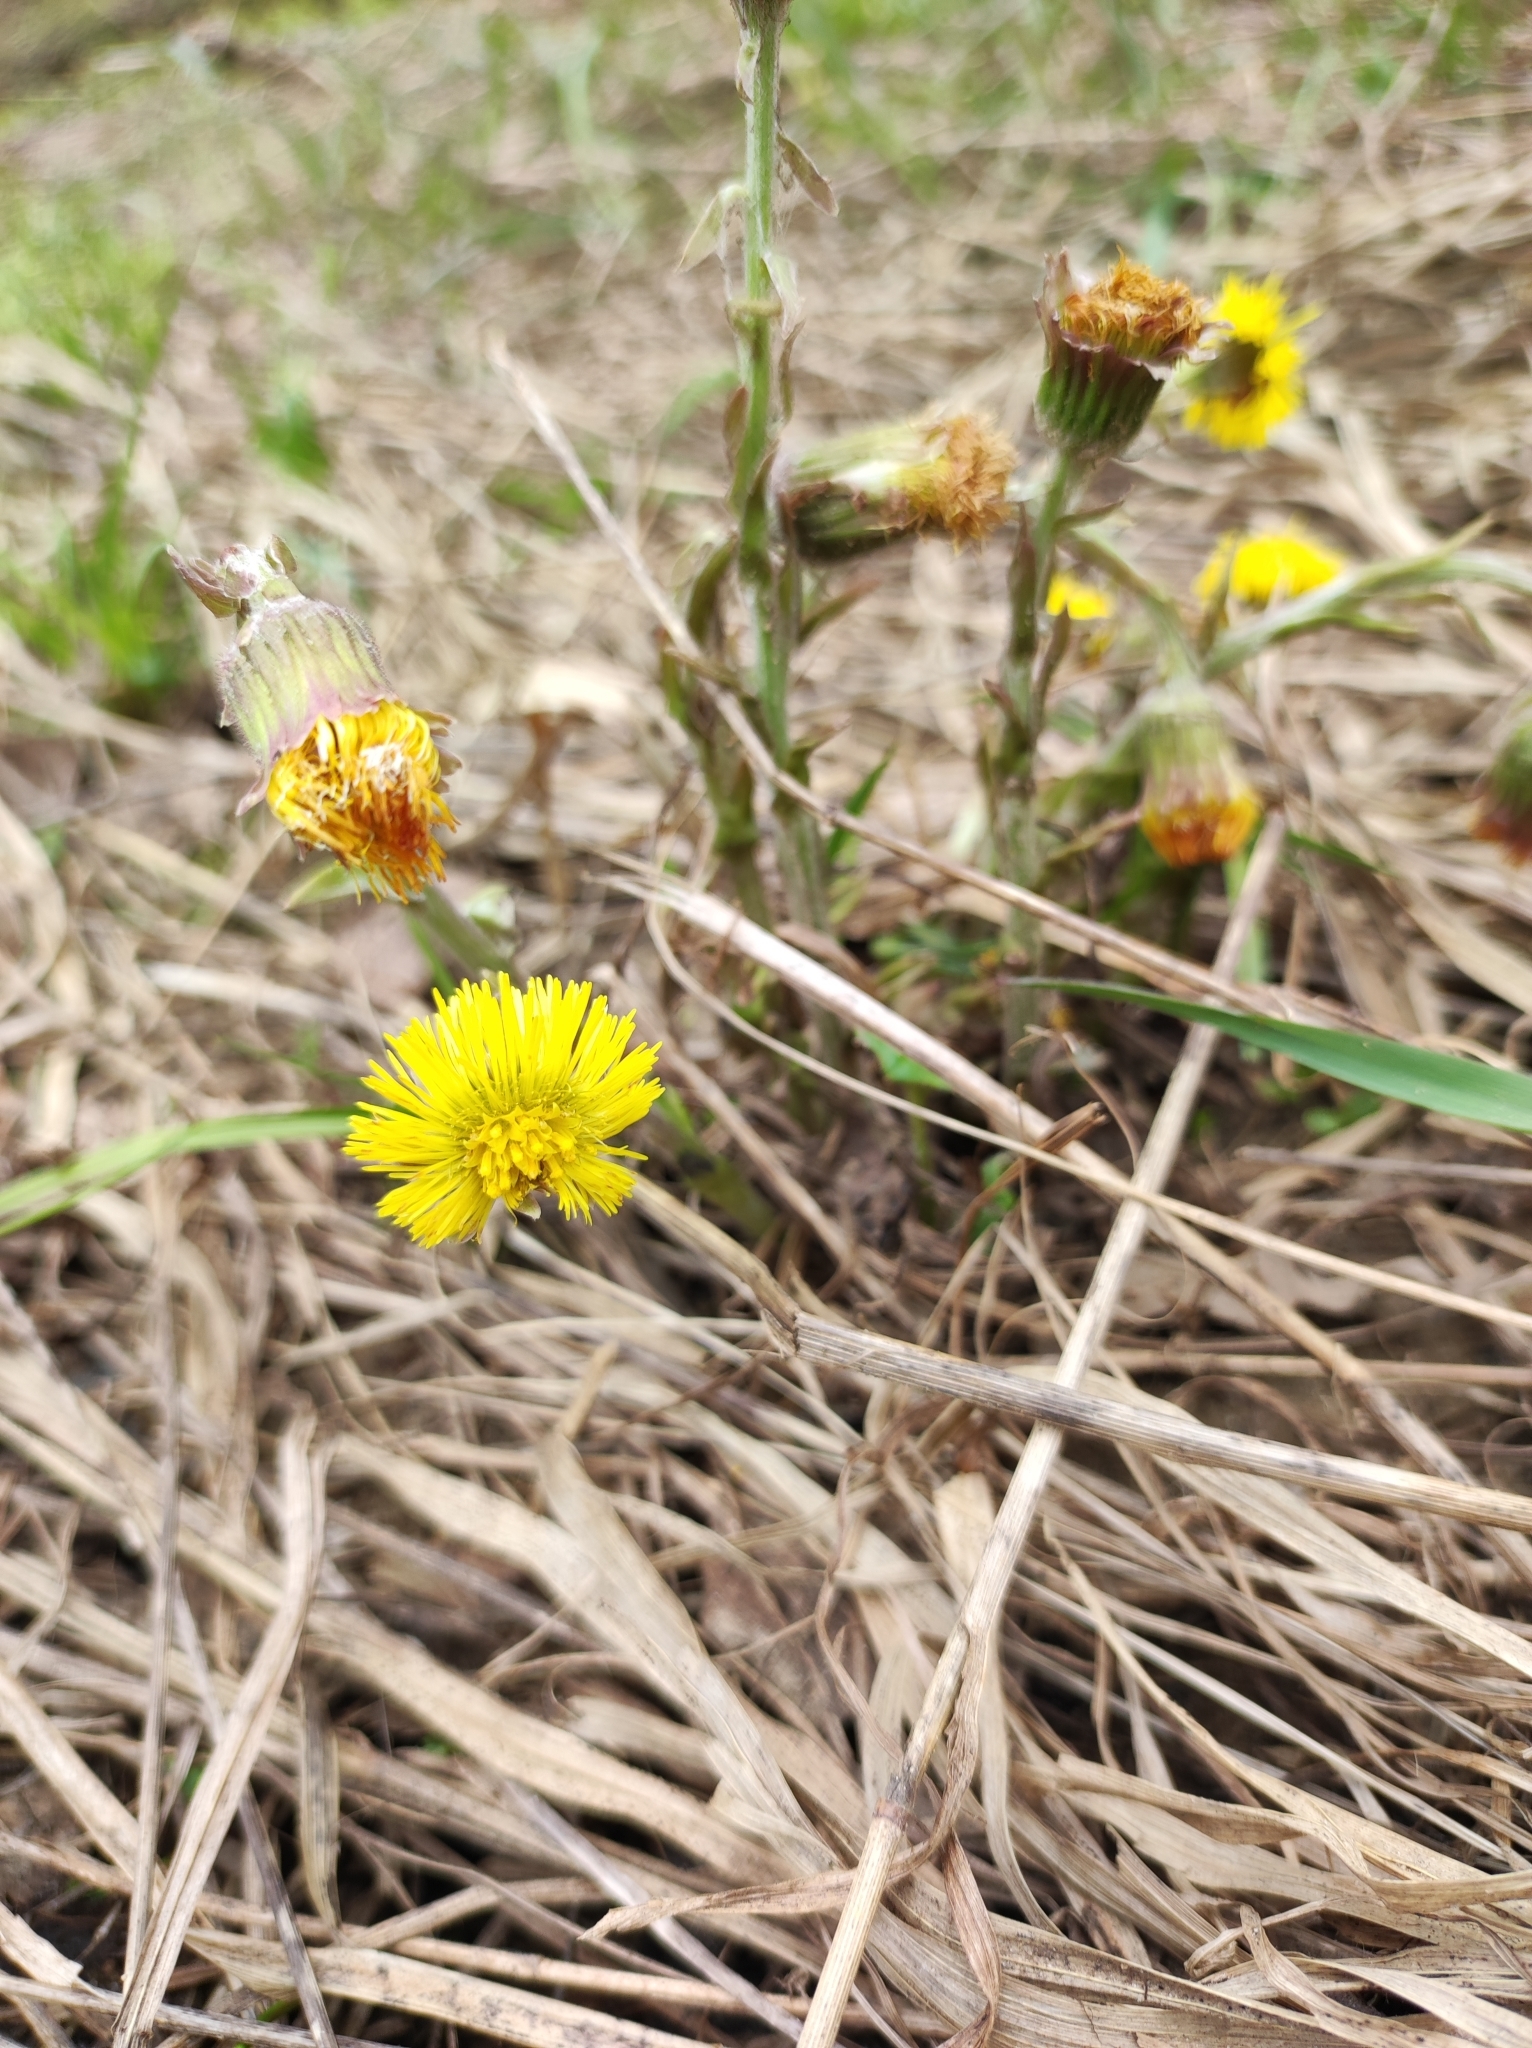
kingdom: Plantae
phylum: Tracheophyta
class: Magnoliopsida
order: Asterales
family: Asteraceae
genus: Tussilago
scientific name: Tussilago farfara
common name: Coltsfoot
